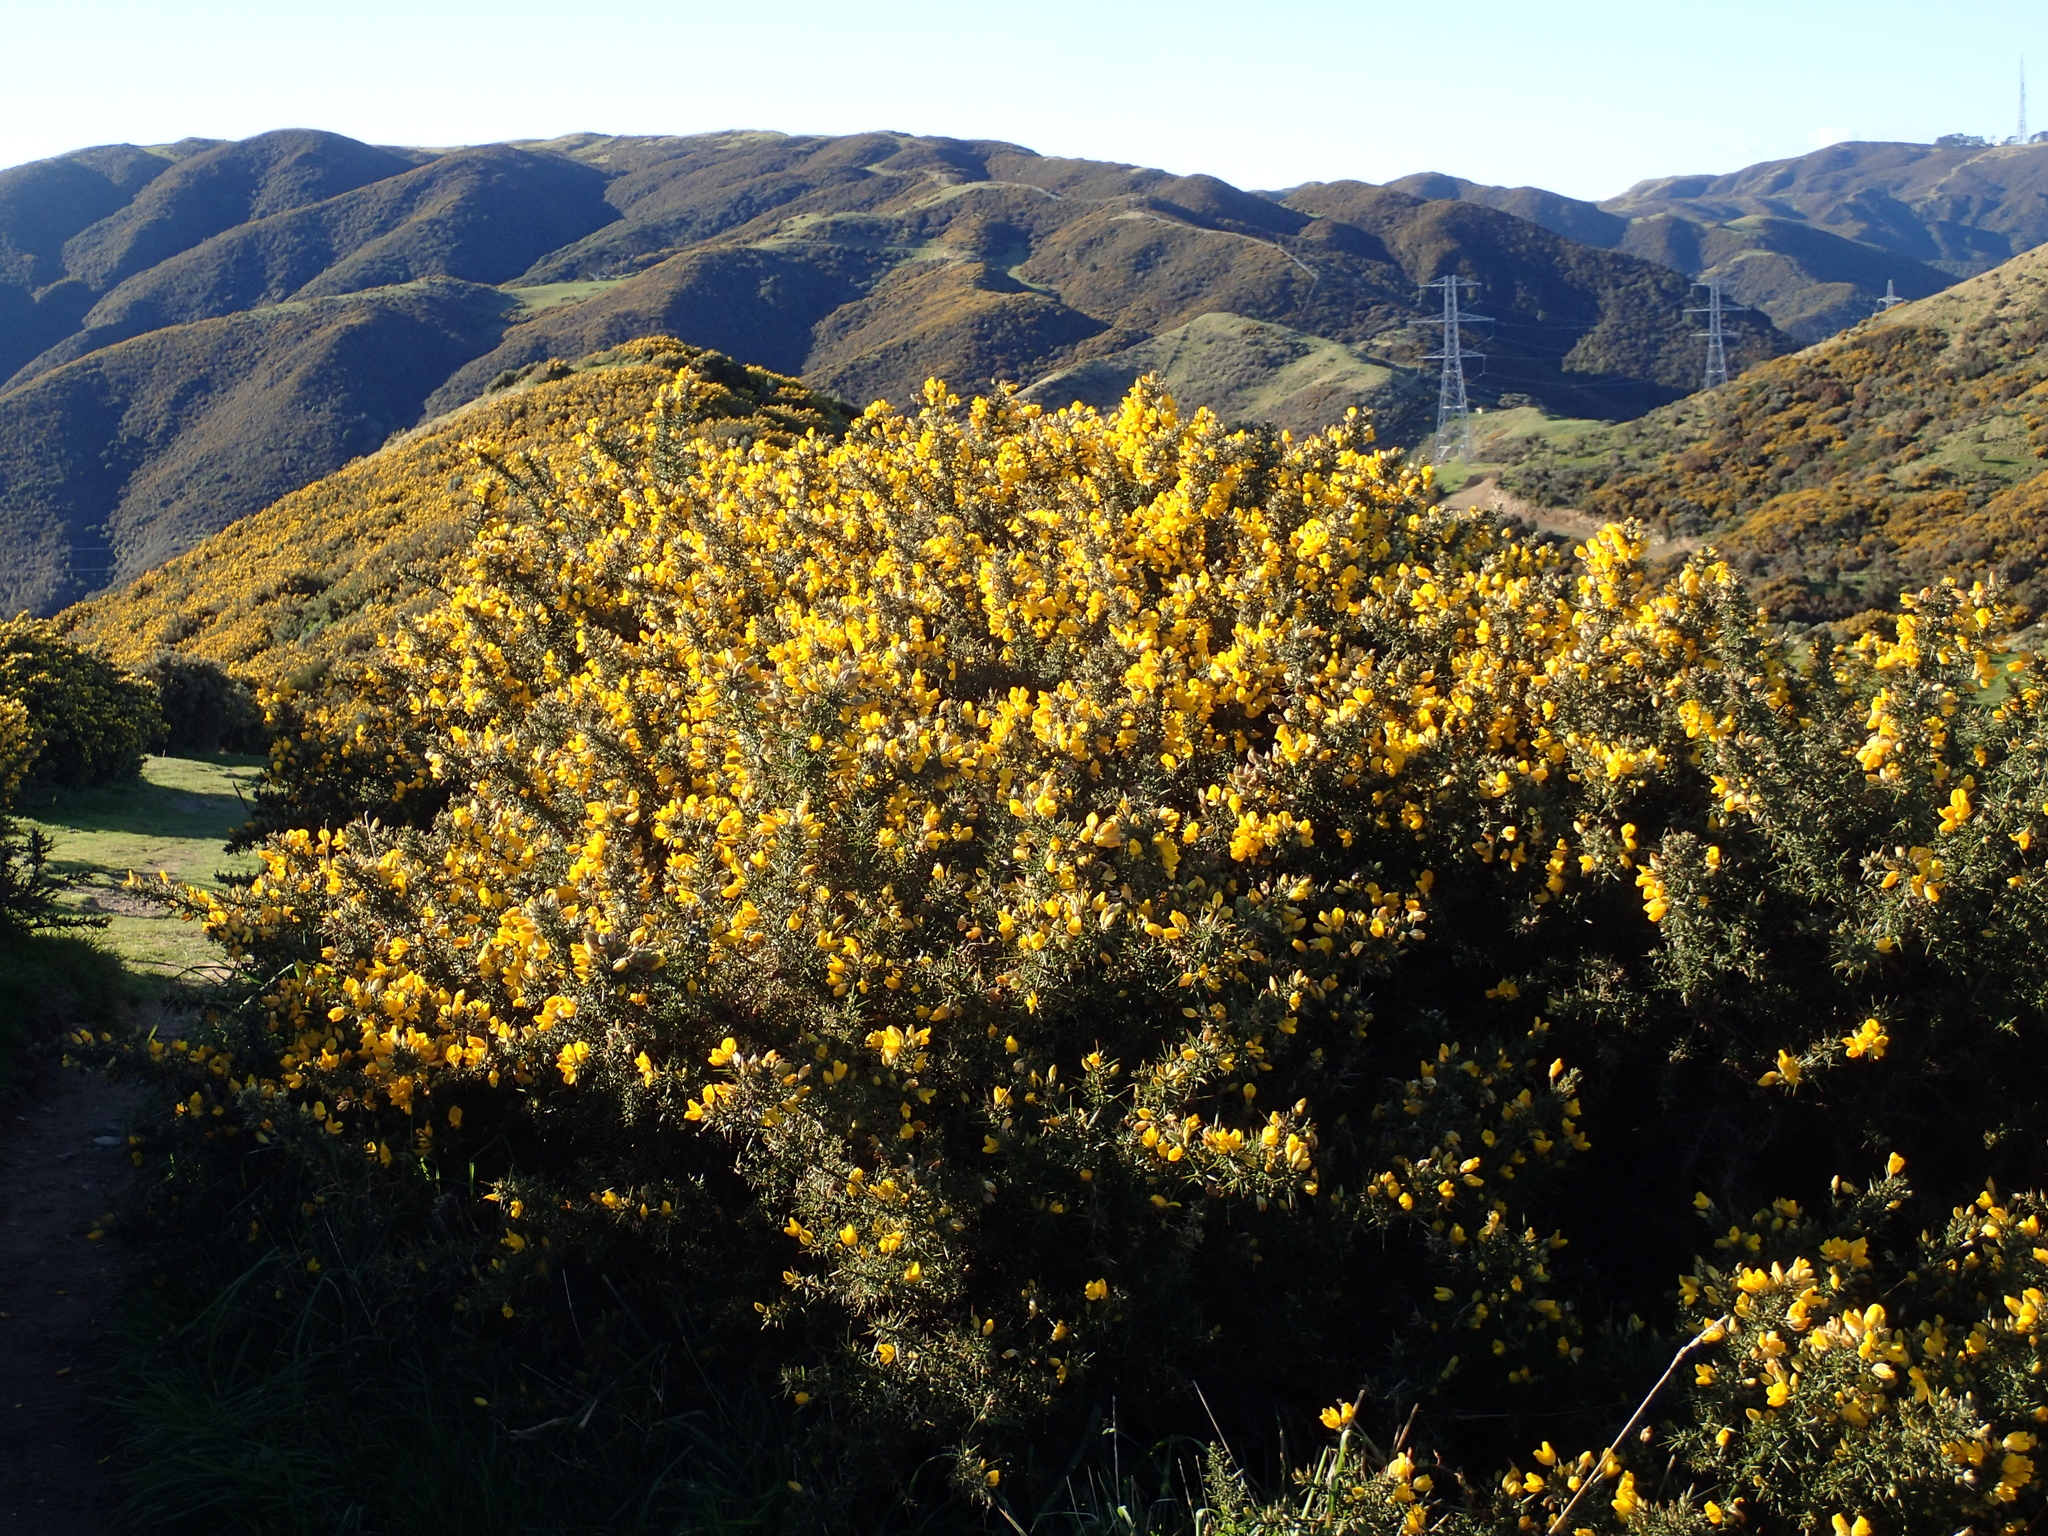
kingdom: Plantae
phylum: Tracheophyta
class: Magnoliopsida
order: Fabales
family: Fabaceae
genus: Ulex
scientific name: Ulex europaeus
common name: Common gorse
